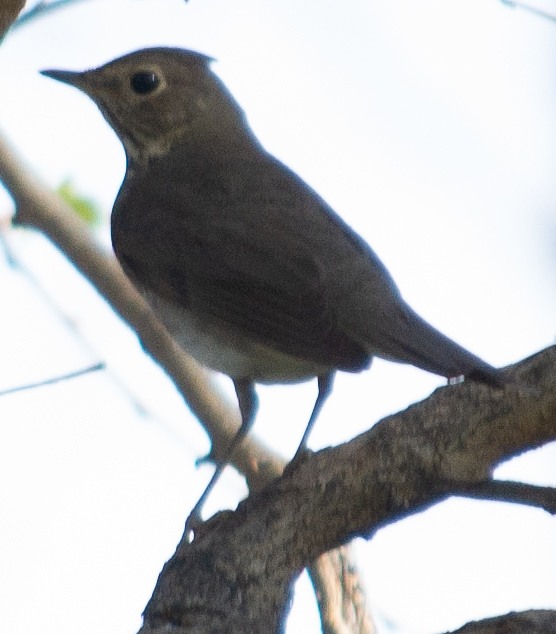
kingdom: Animalia
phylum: Chordata
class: Aves
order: Passeriformes
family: Turdidae
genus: Catharus
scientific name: Catharus ustulatus
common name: Swainson's thrush
